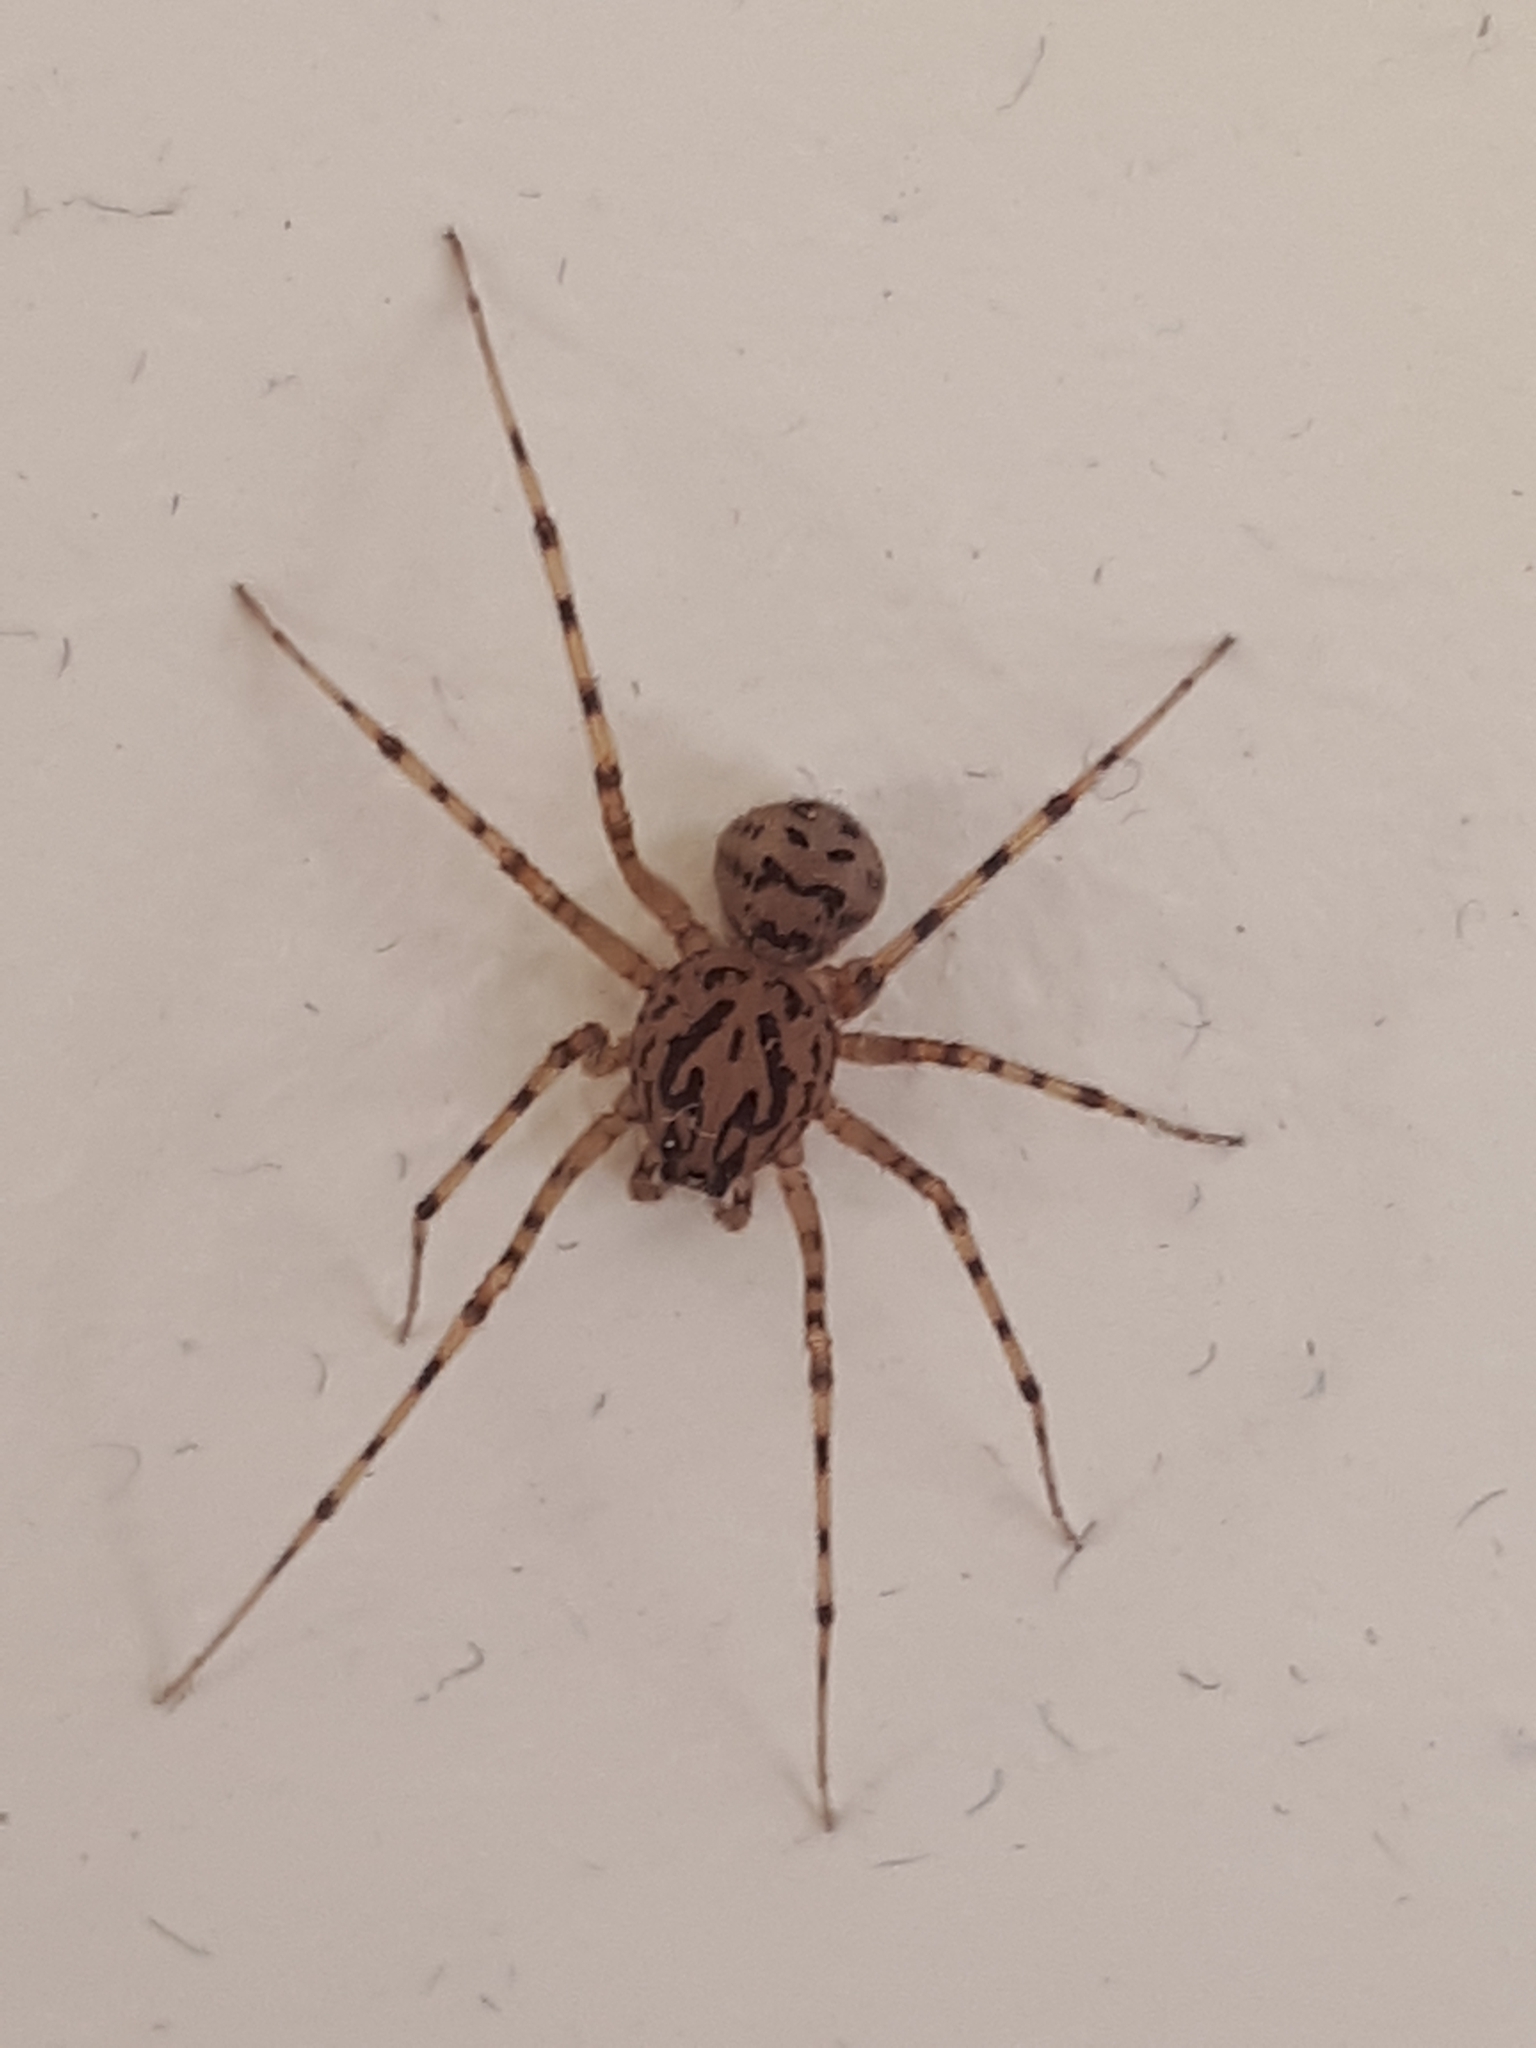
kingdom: Animalia
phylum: Arthropoda
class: Arachnida
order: Araneae
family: Scytodidae
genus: Scytodes
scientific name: Scytodes thoracica
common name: Spitting spider
